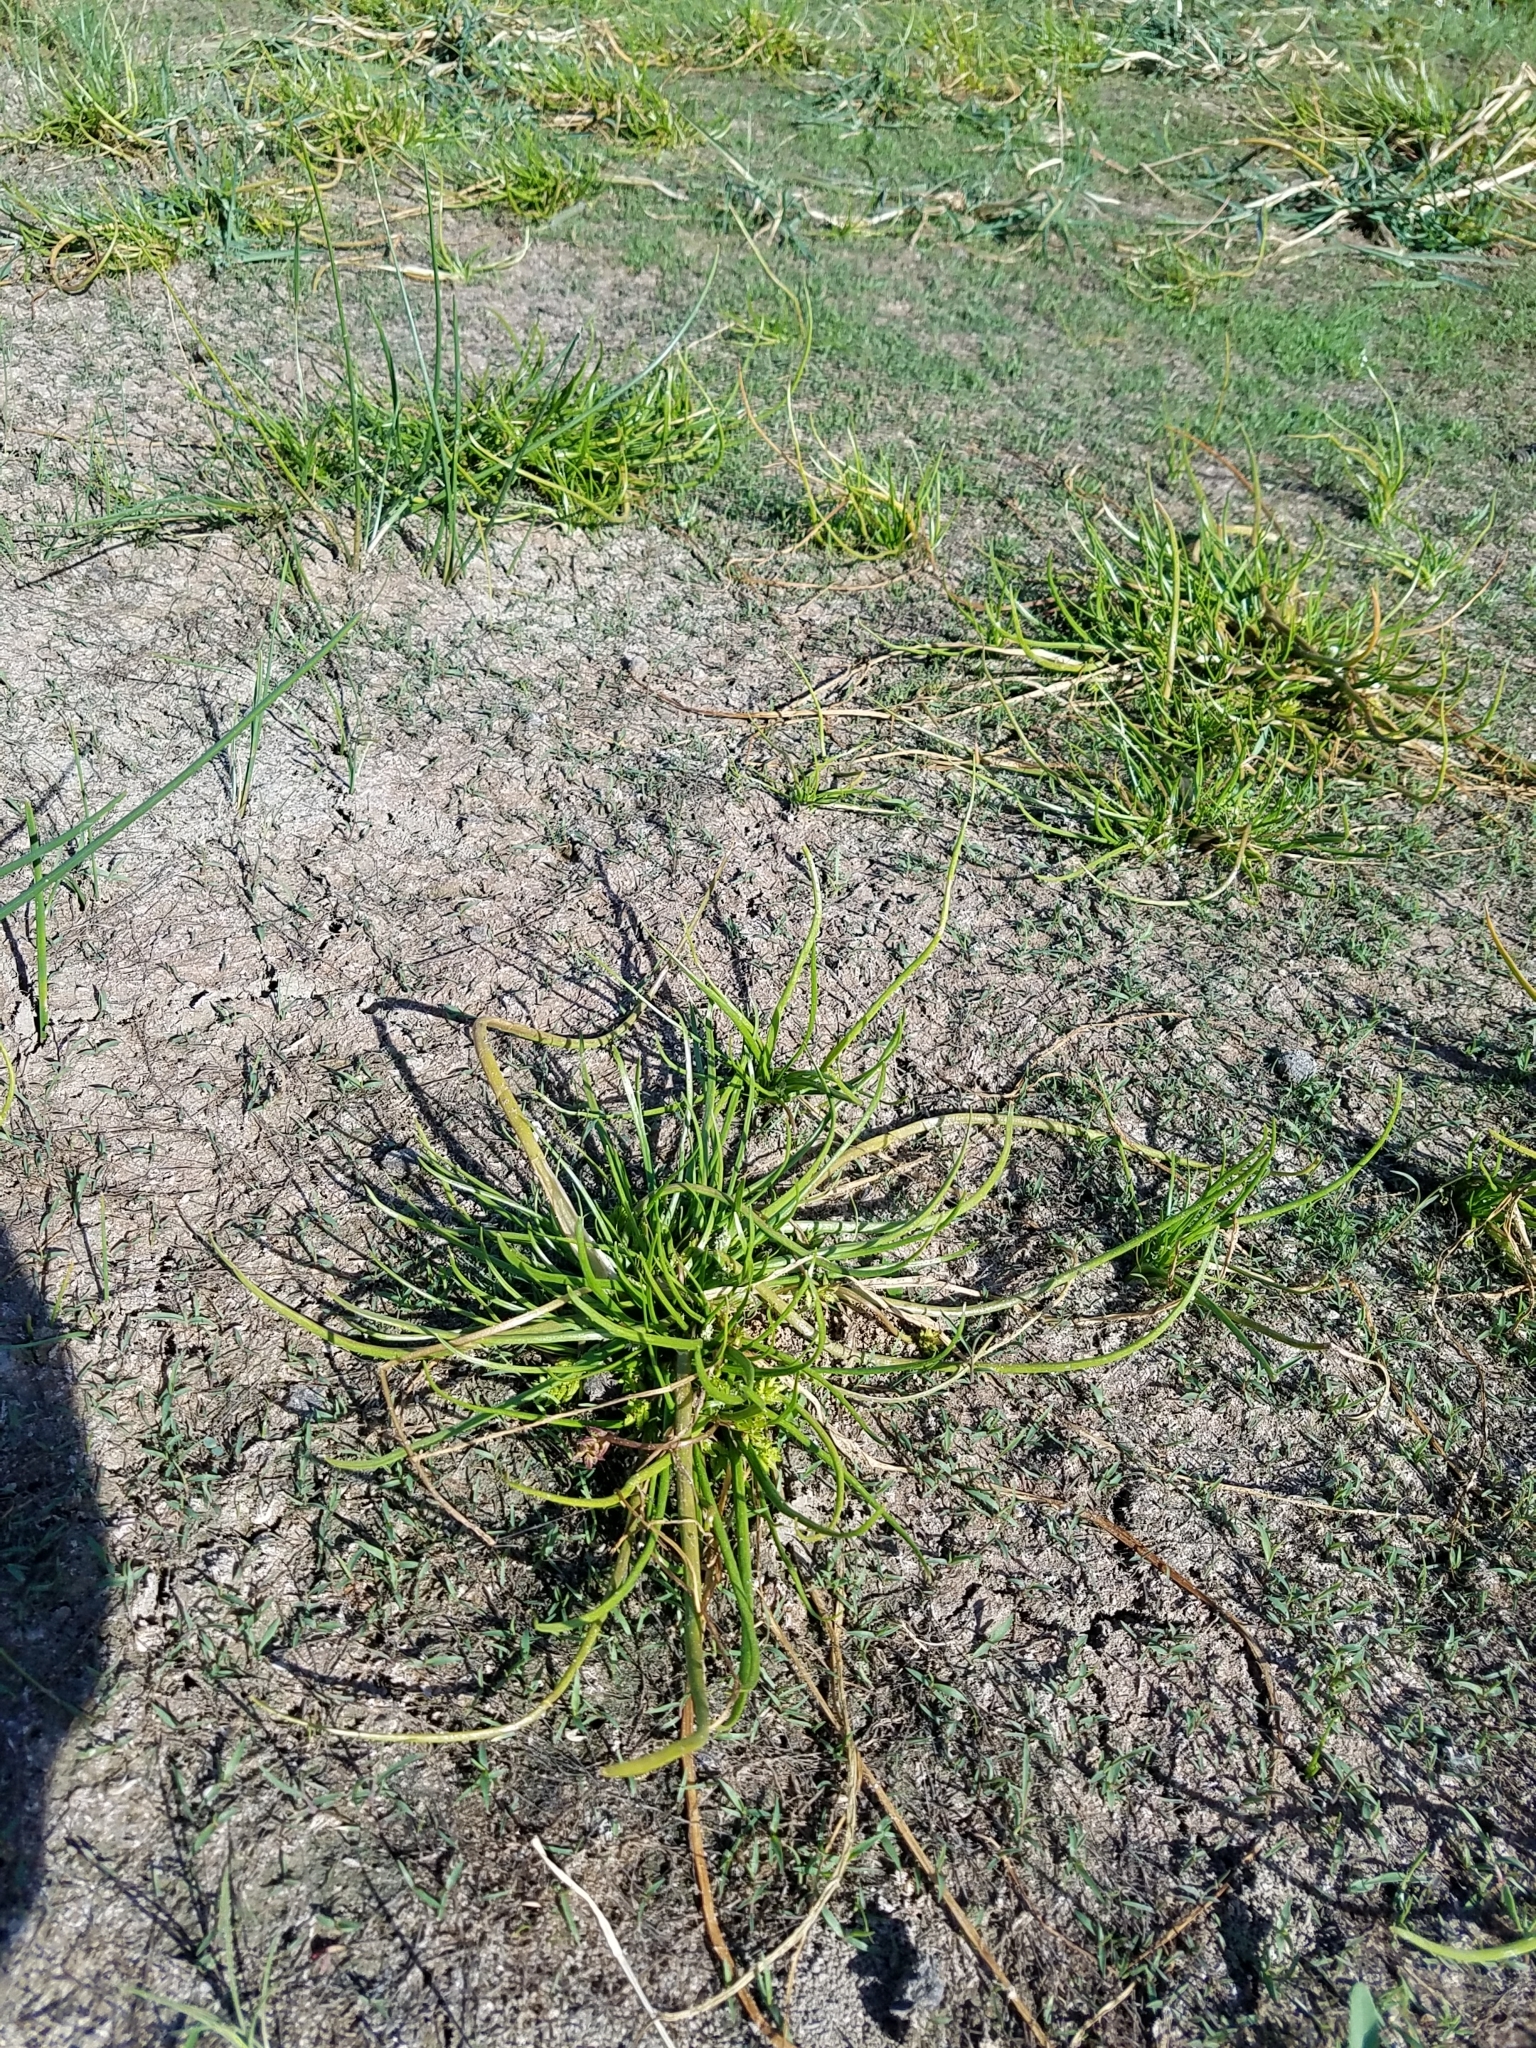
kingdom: Plantae
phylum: Tracheophyta
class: Liliopsida
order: Alismatales
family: Juncaginaceae
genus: Triglochin
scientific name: Triglochin scilloides
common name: Awl-leaved lilaea
